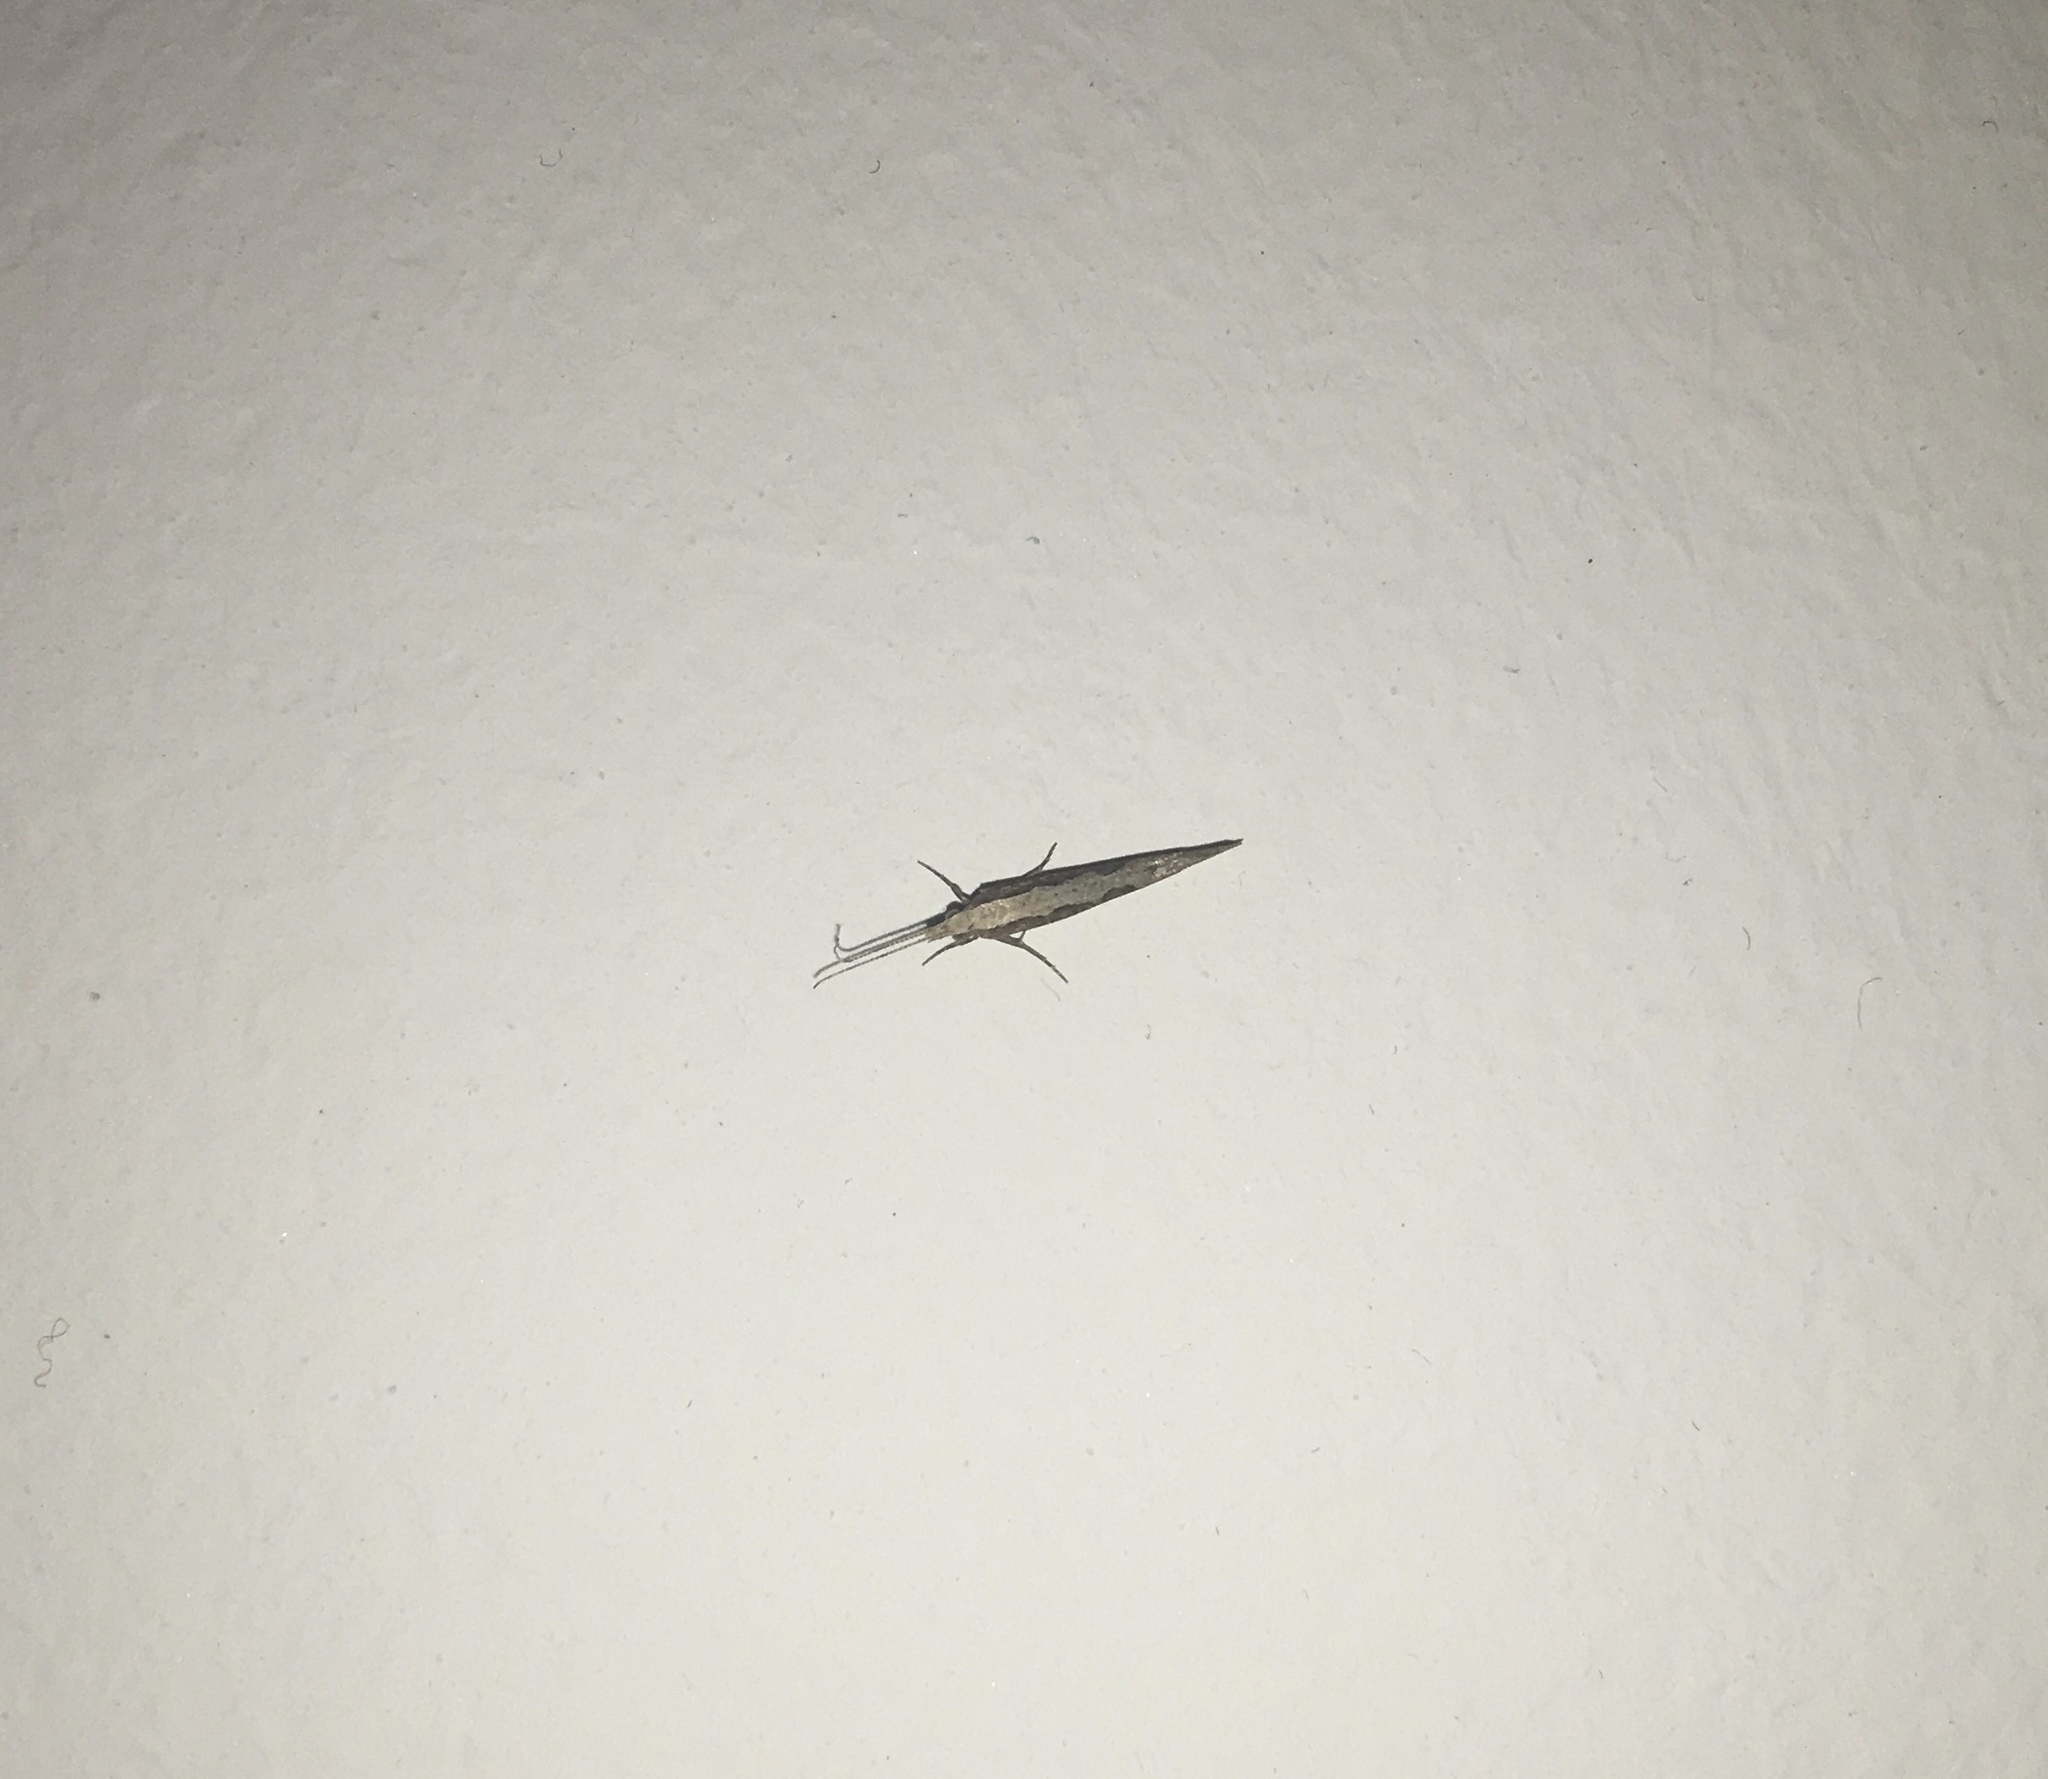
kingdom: Animalia
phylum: Arthropoda
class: Insecta
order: Lepidoptera
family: Plutellidae
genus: Plutella
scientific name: Plutella xylostella
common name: Diamond-back moth
